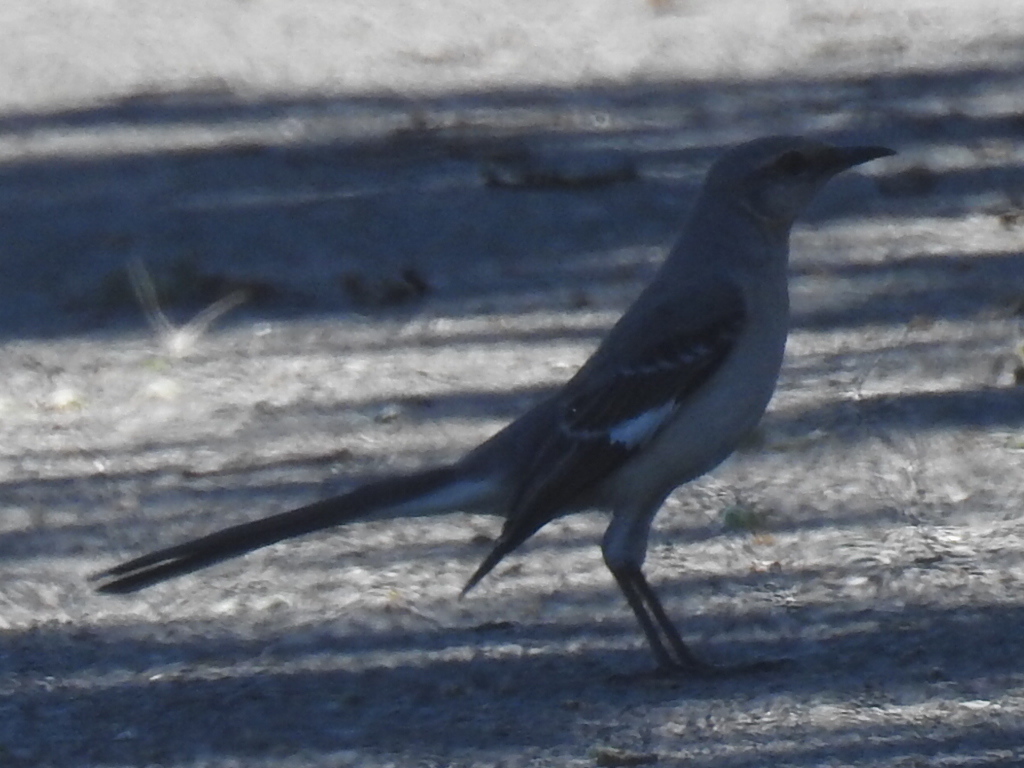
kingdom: Animalia
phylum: Chordata
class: Aves
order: Passeriformes
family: Mimidae
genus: Mimus
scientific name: Mimus polyglottos
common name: Northern mockingbird
